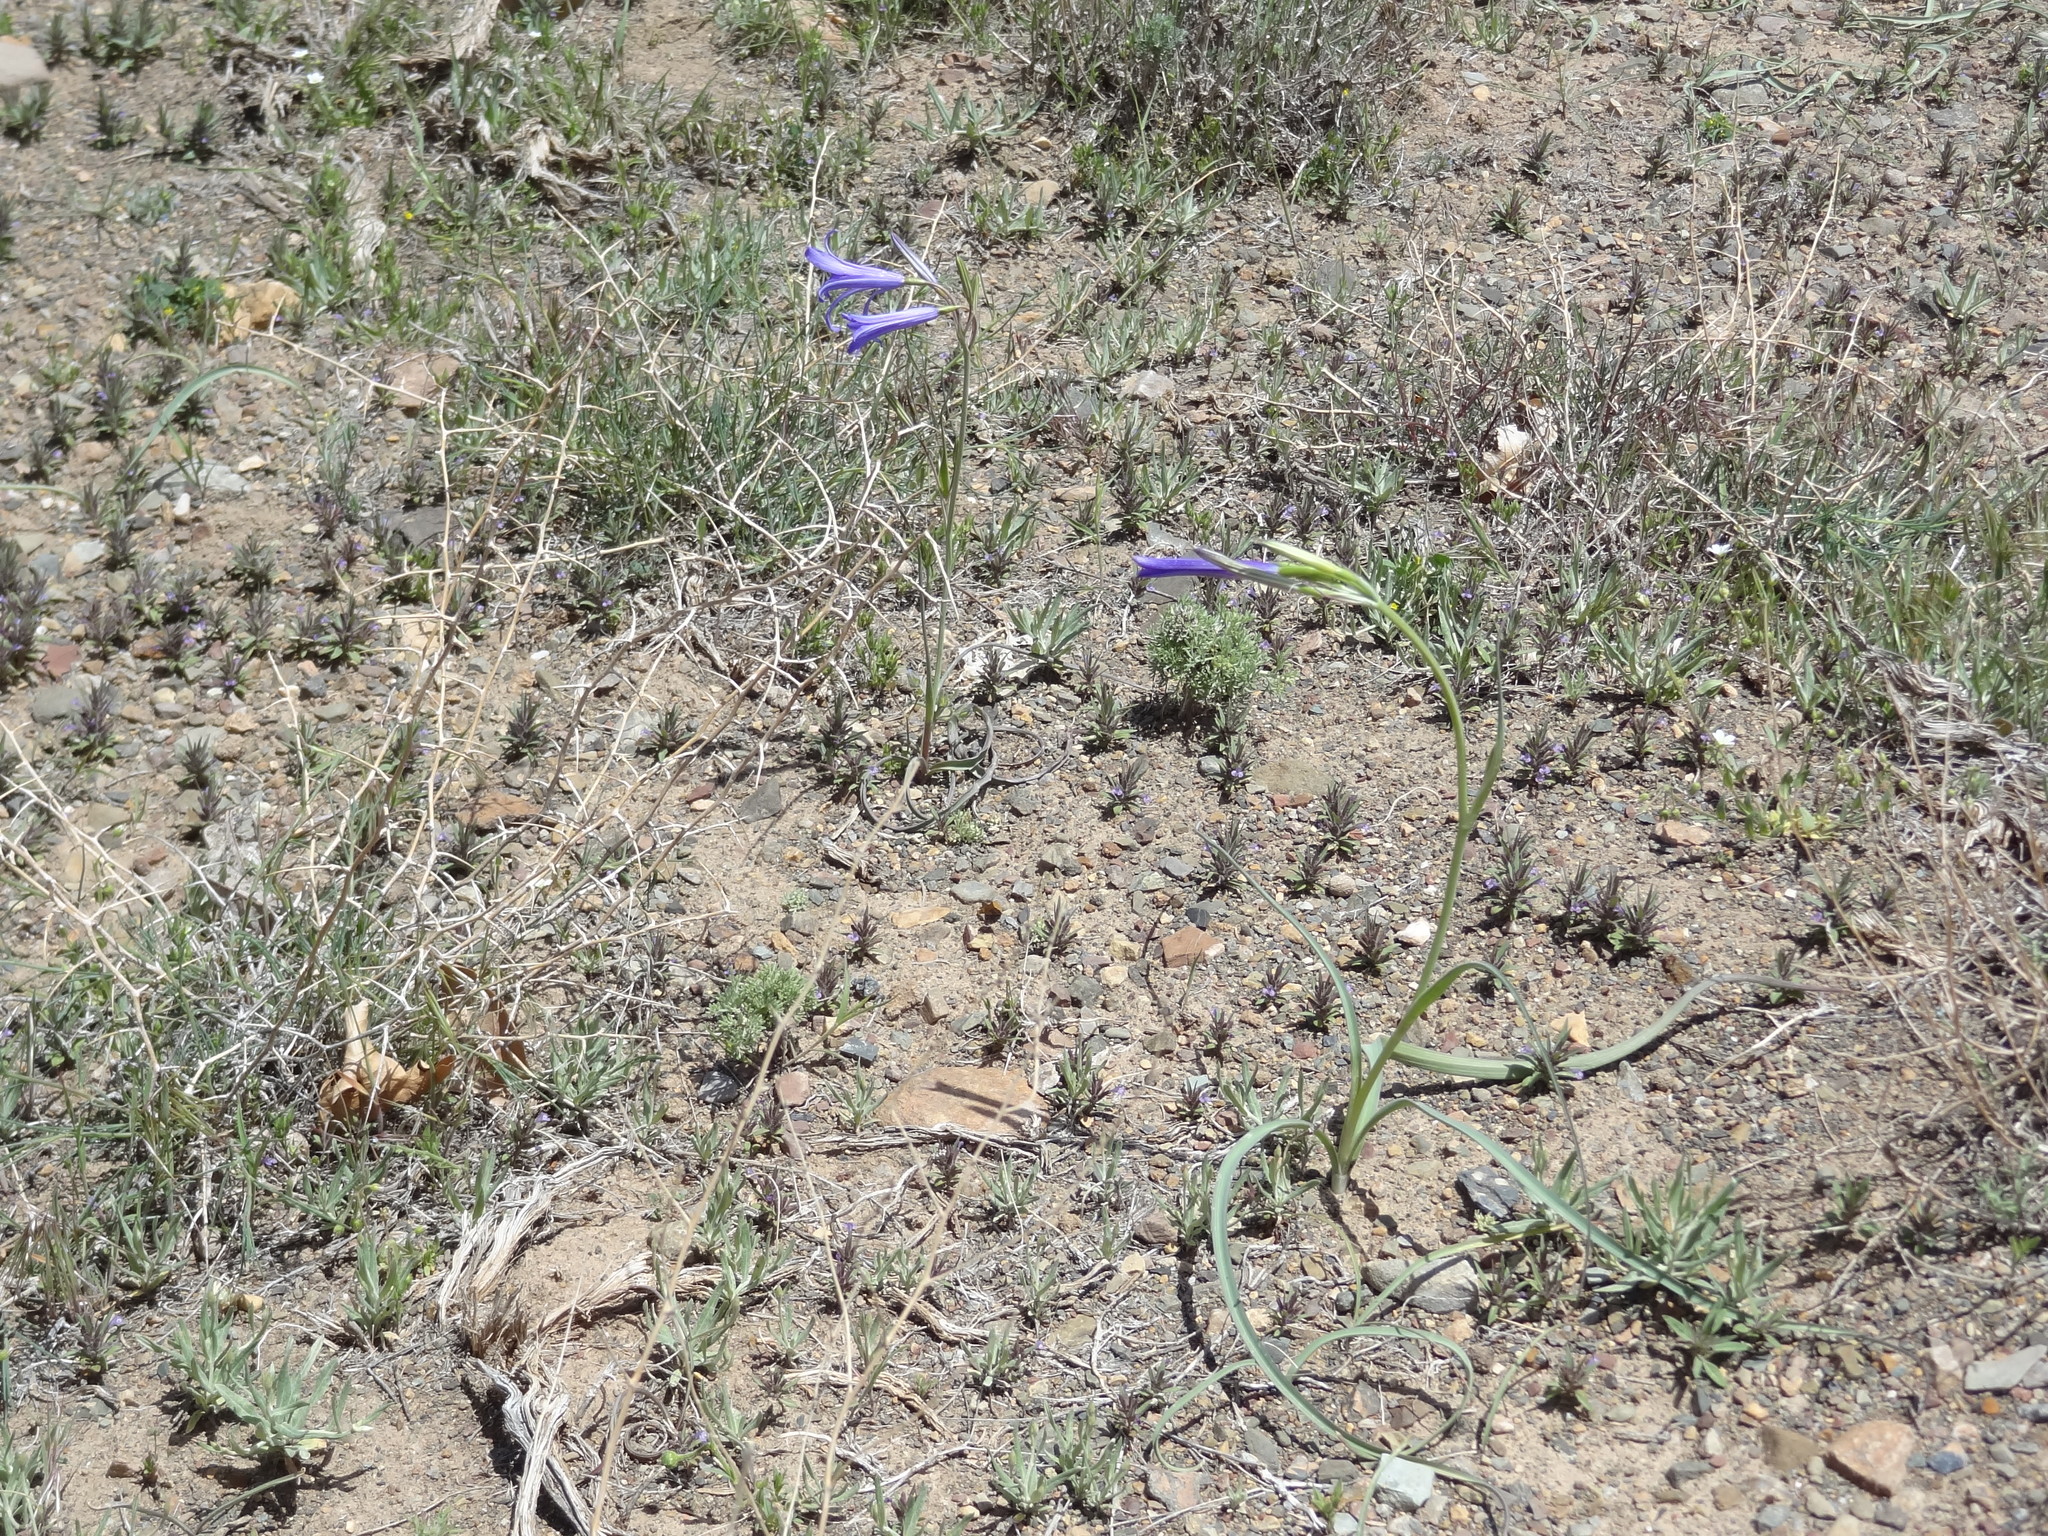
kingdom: Plantae
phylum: Tracheophyta
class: Liliopsida
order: Asparagales
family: Ixioliriaceae
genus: Ixiolirion
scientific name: Ixiolirion tataricum
